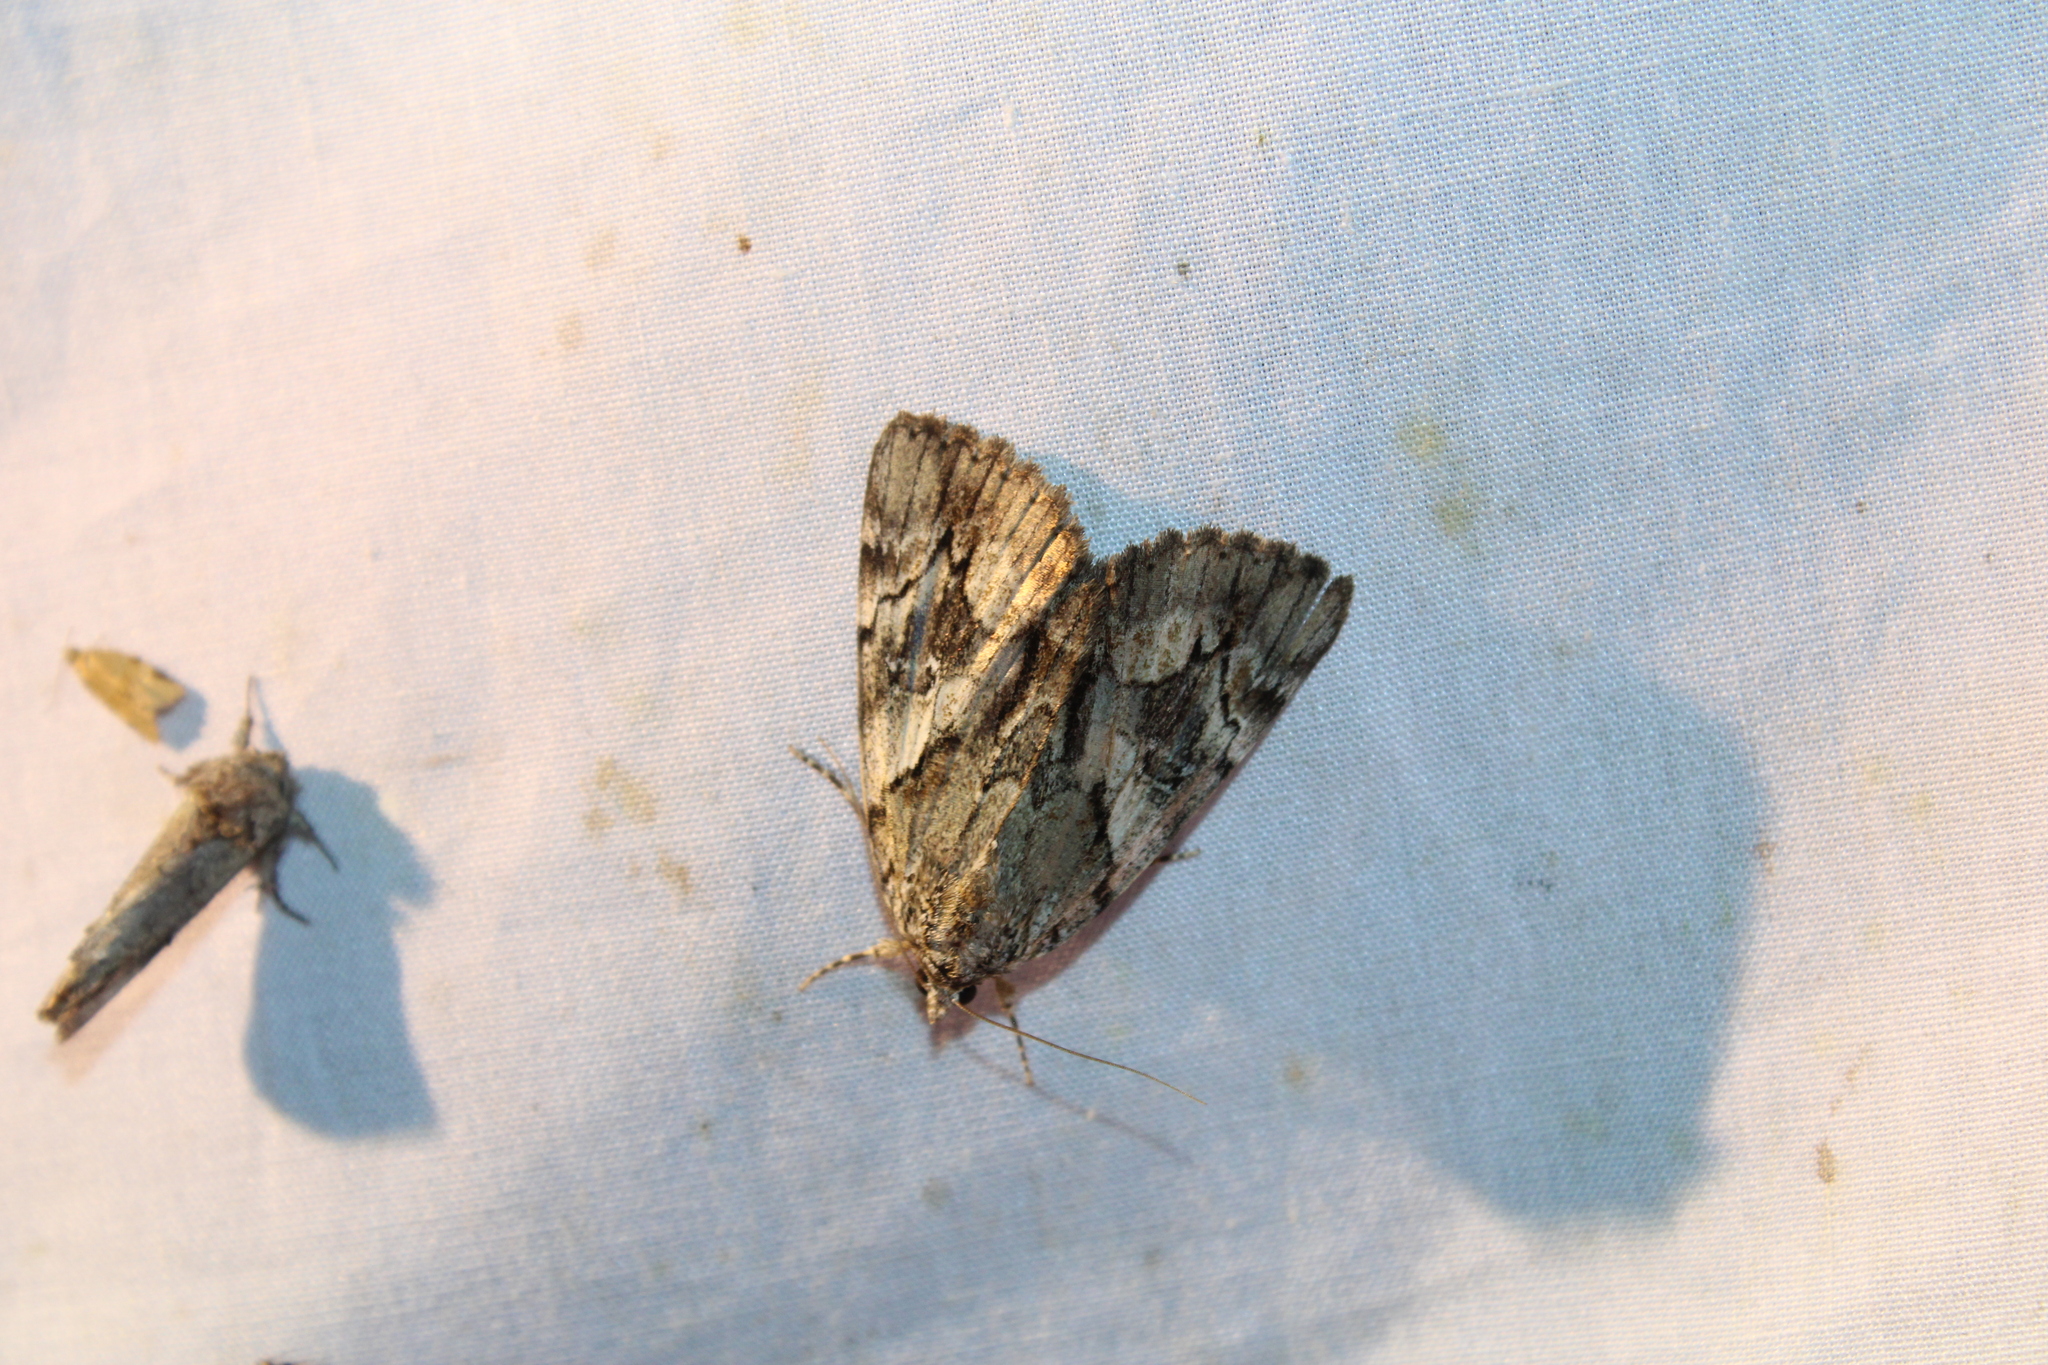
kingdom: Animalia
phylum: Arthropoda
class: Insecta
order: Lepidoptera
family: Erebidae
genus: Catocala
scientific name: Catocala blandula
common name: Charming underwing
